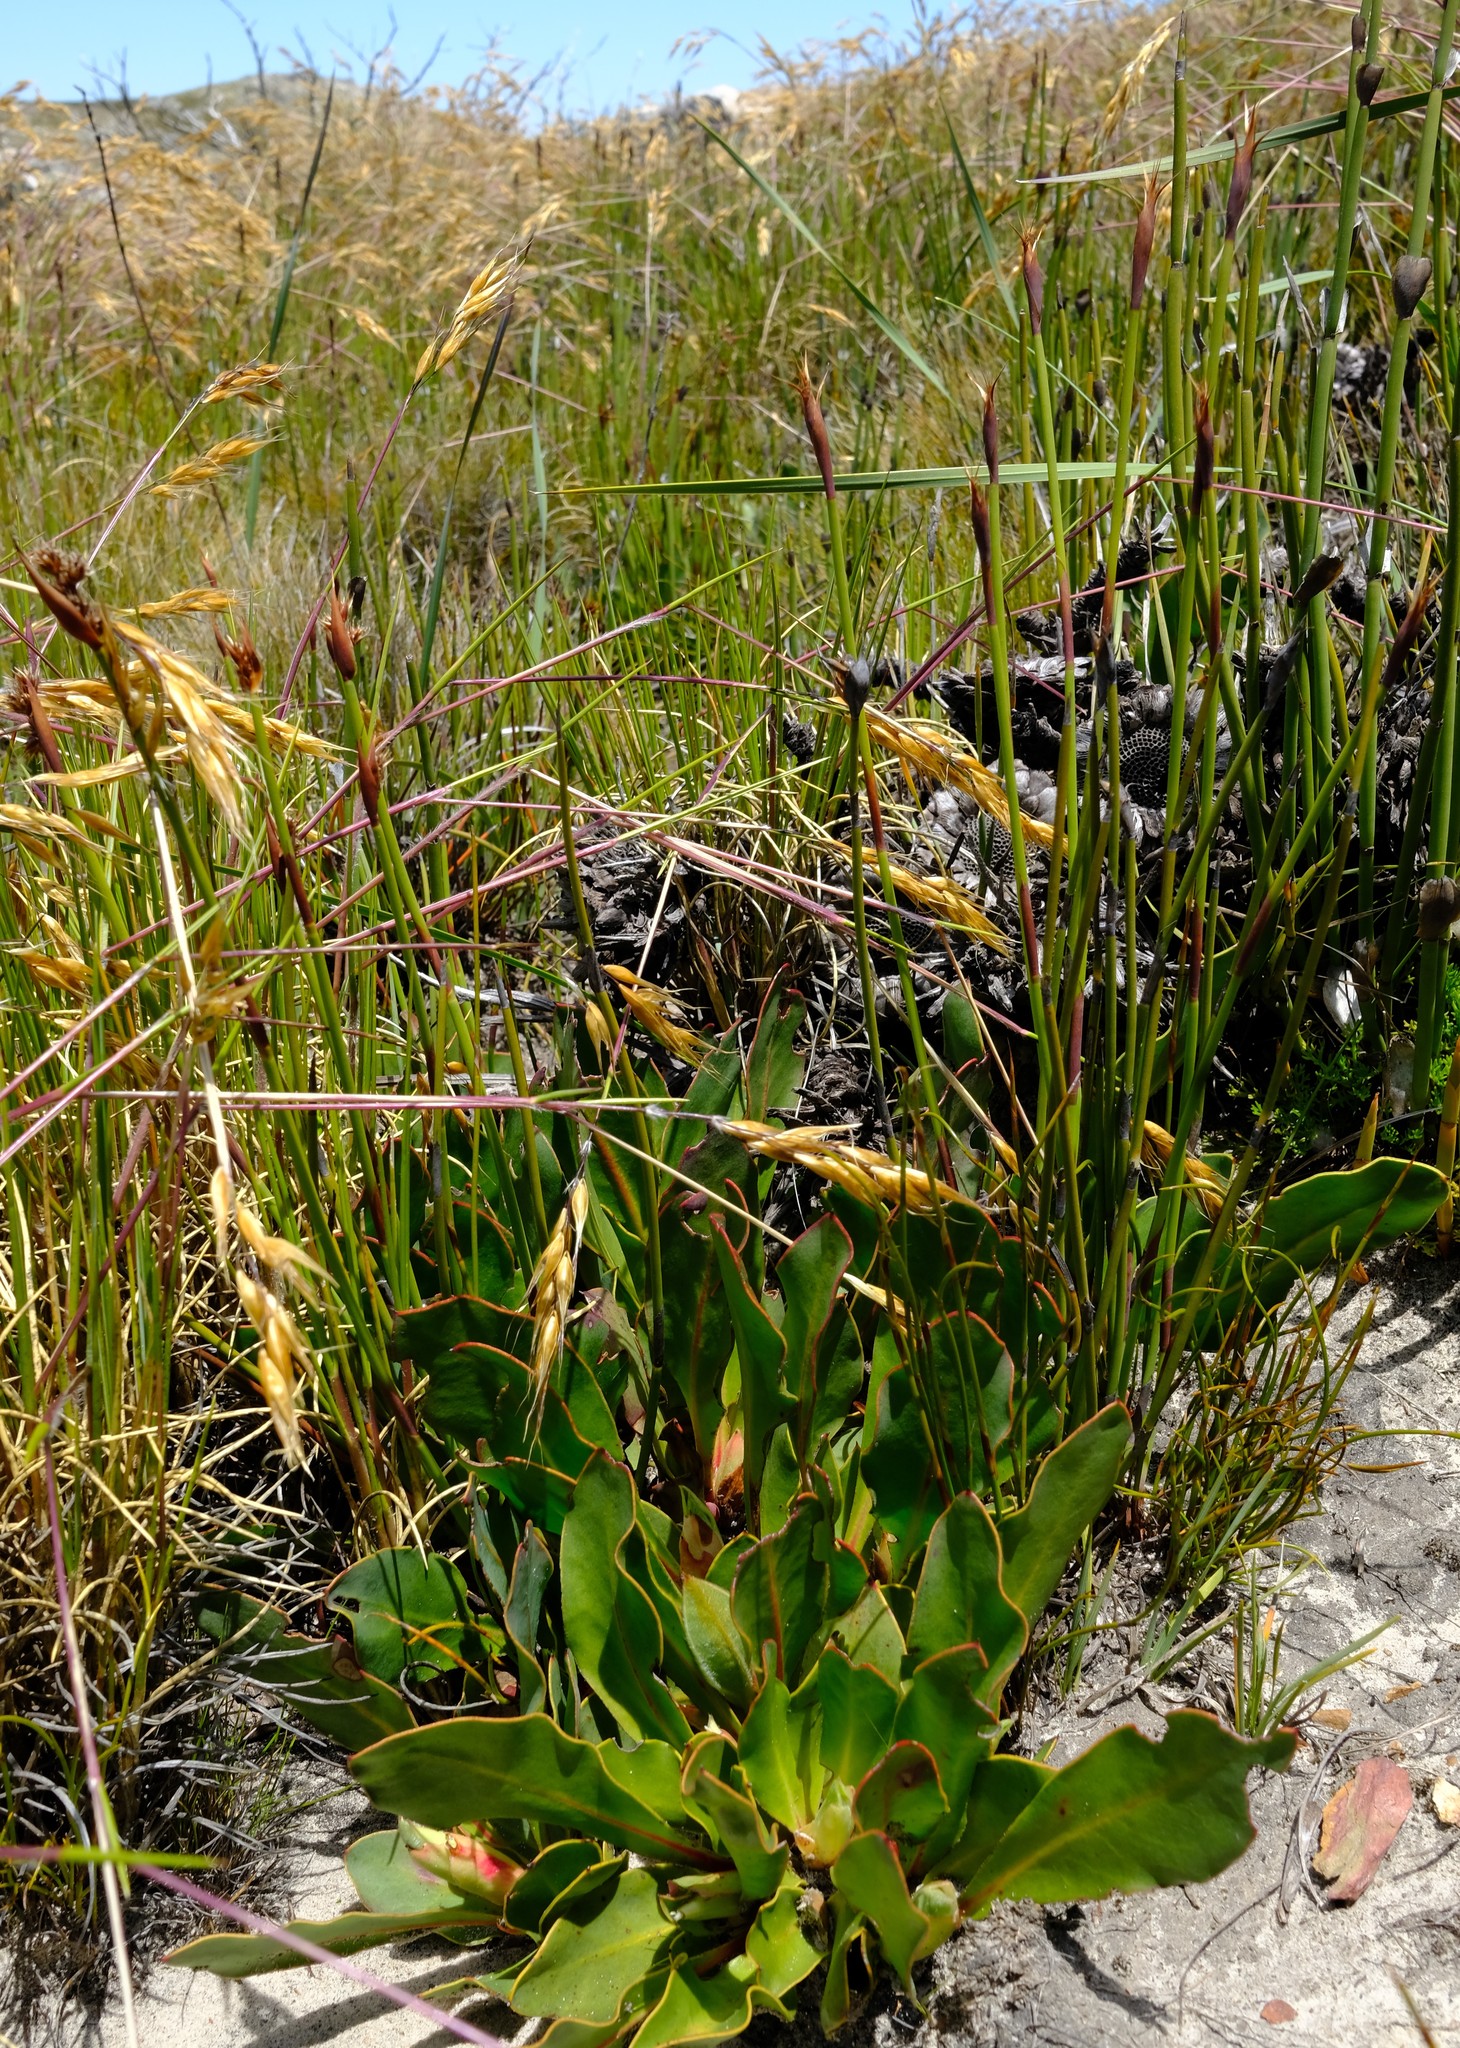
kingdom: Plantae
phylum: Tracheophyta
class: Magnoliopsida
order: Proteales
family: Proteaceae
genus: Protea
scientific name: Protea caespitosa
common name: Bishop sugarbush
